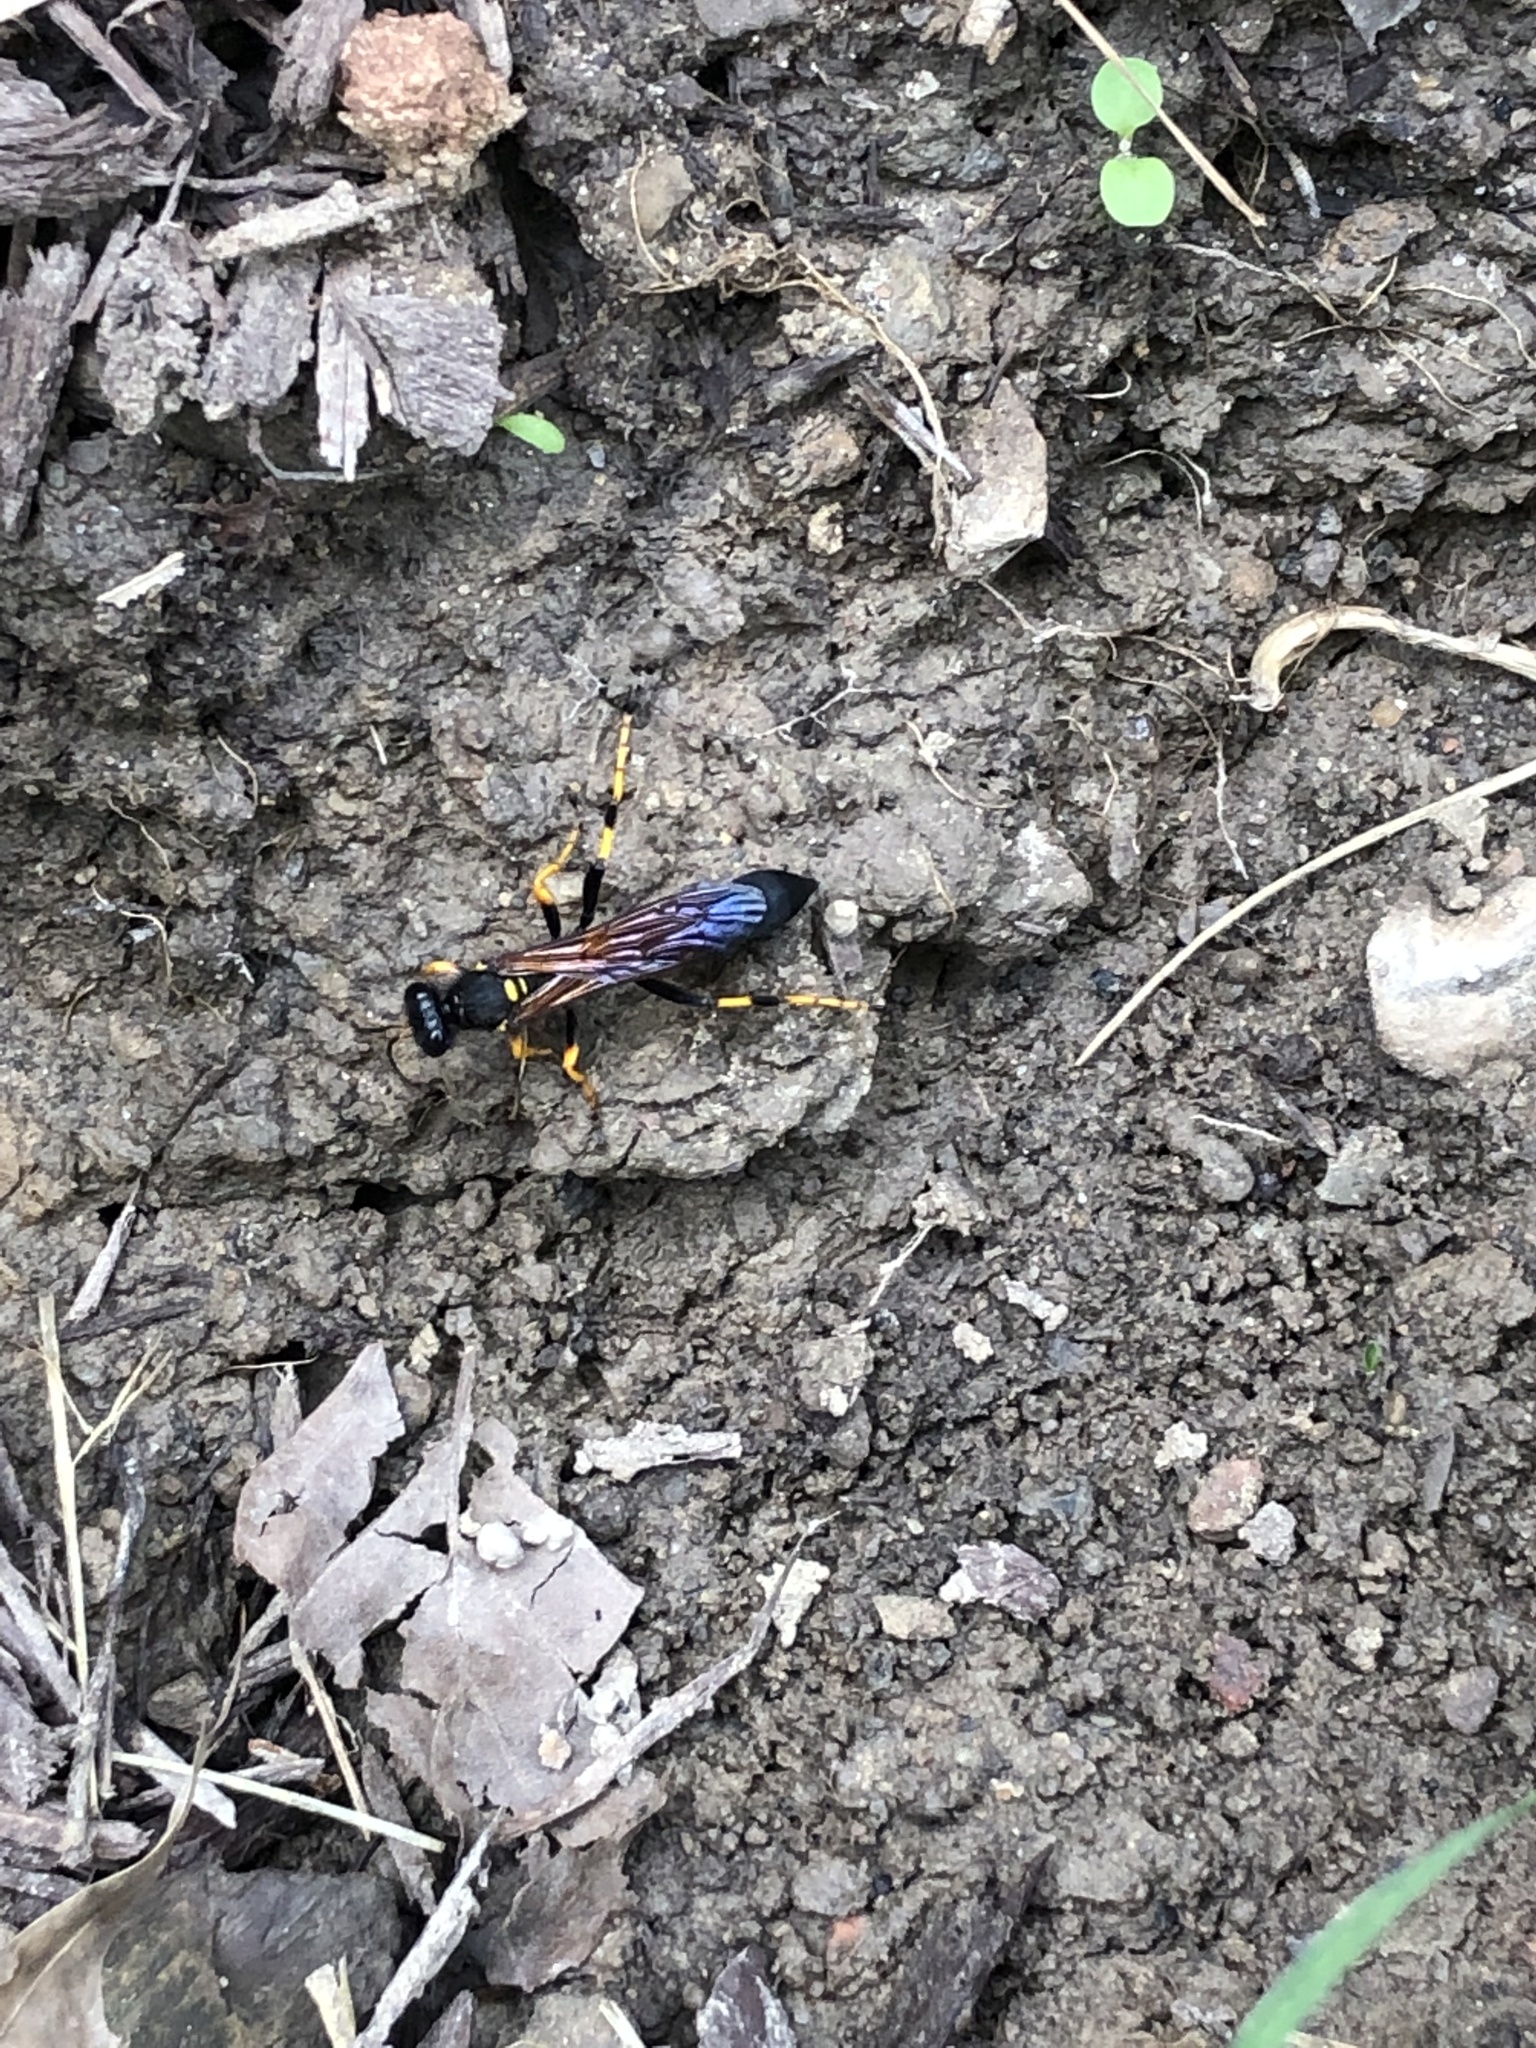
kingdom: Animalia
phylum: Arthropoda
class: Insecta
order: Hymenoptera
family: Sphecidae
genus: Sceliphron
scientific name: Sceliphron caementarium
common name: Mud dauber
